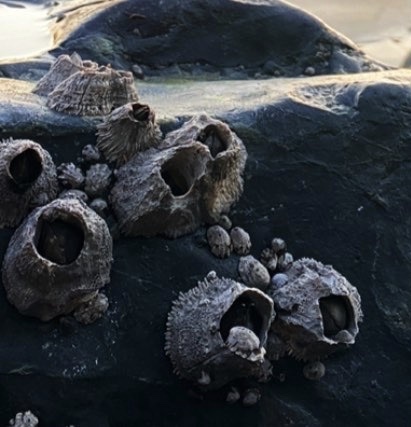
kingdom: Animalia
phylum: Arthropoda
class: Maxillopoda
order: Sessilia
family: Archaeobalanidae
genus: Semibalanus
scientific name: Semibalanus cariosus
